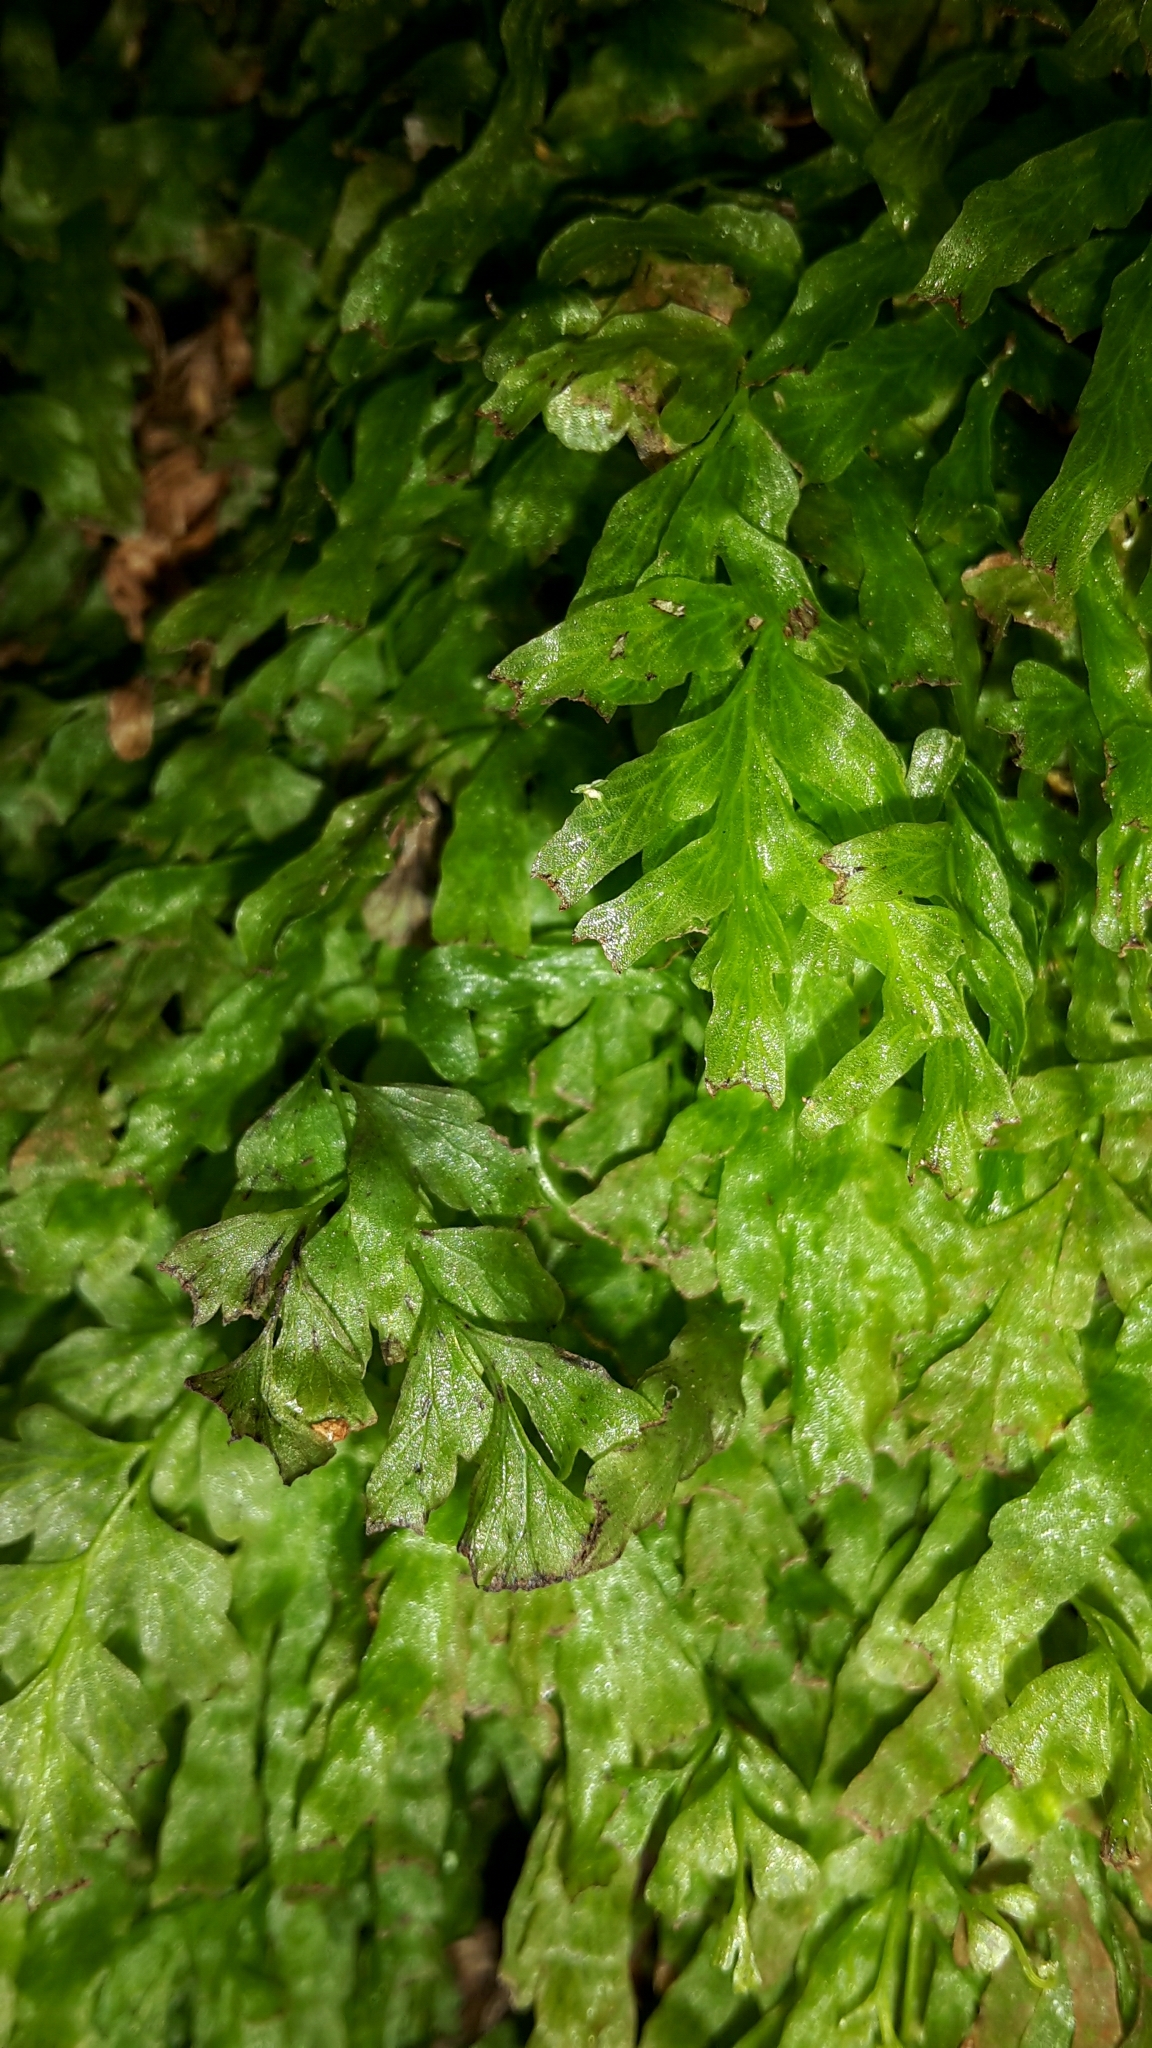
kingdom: Plantae
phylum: Tracheophyta
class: Polypodiopsida
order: Hymenophyllales
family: Hymenophyllaceae
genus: Polyphlebium
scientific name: Polyphlebium venosum
